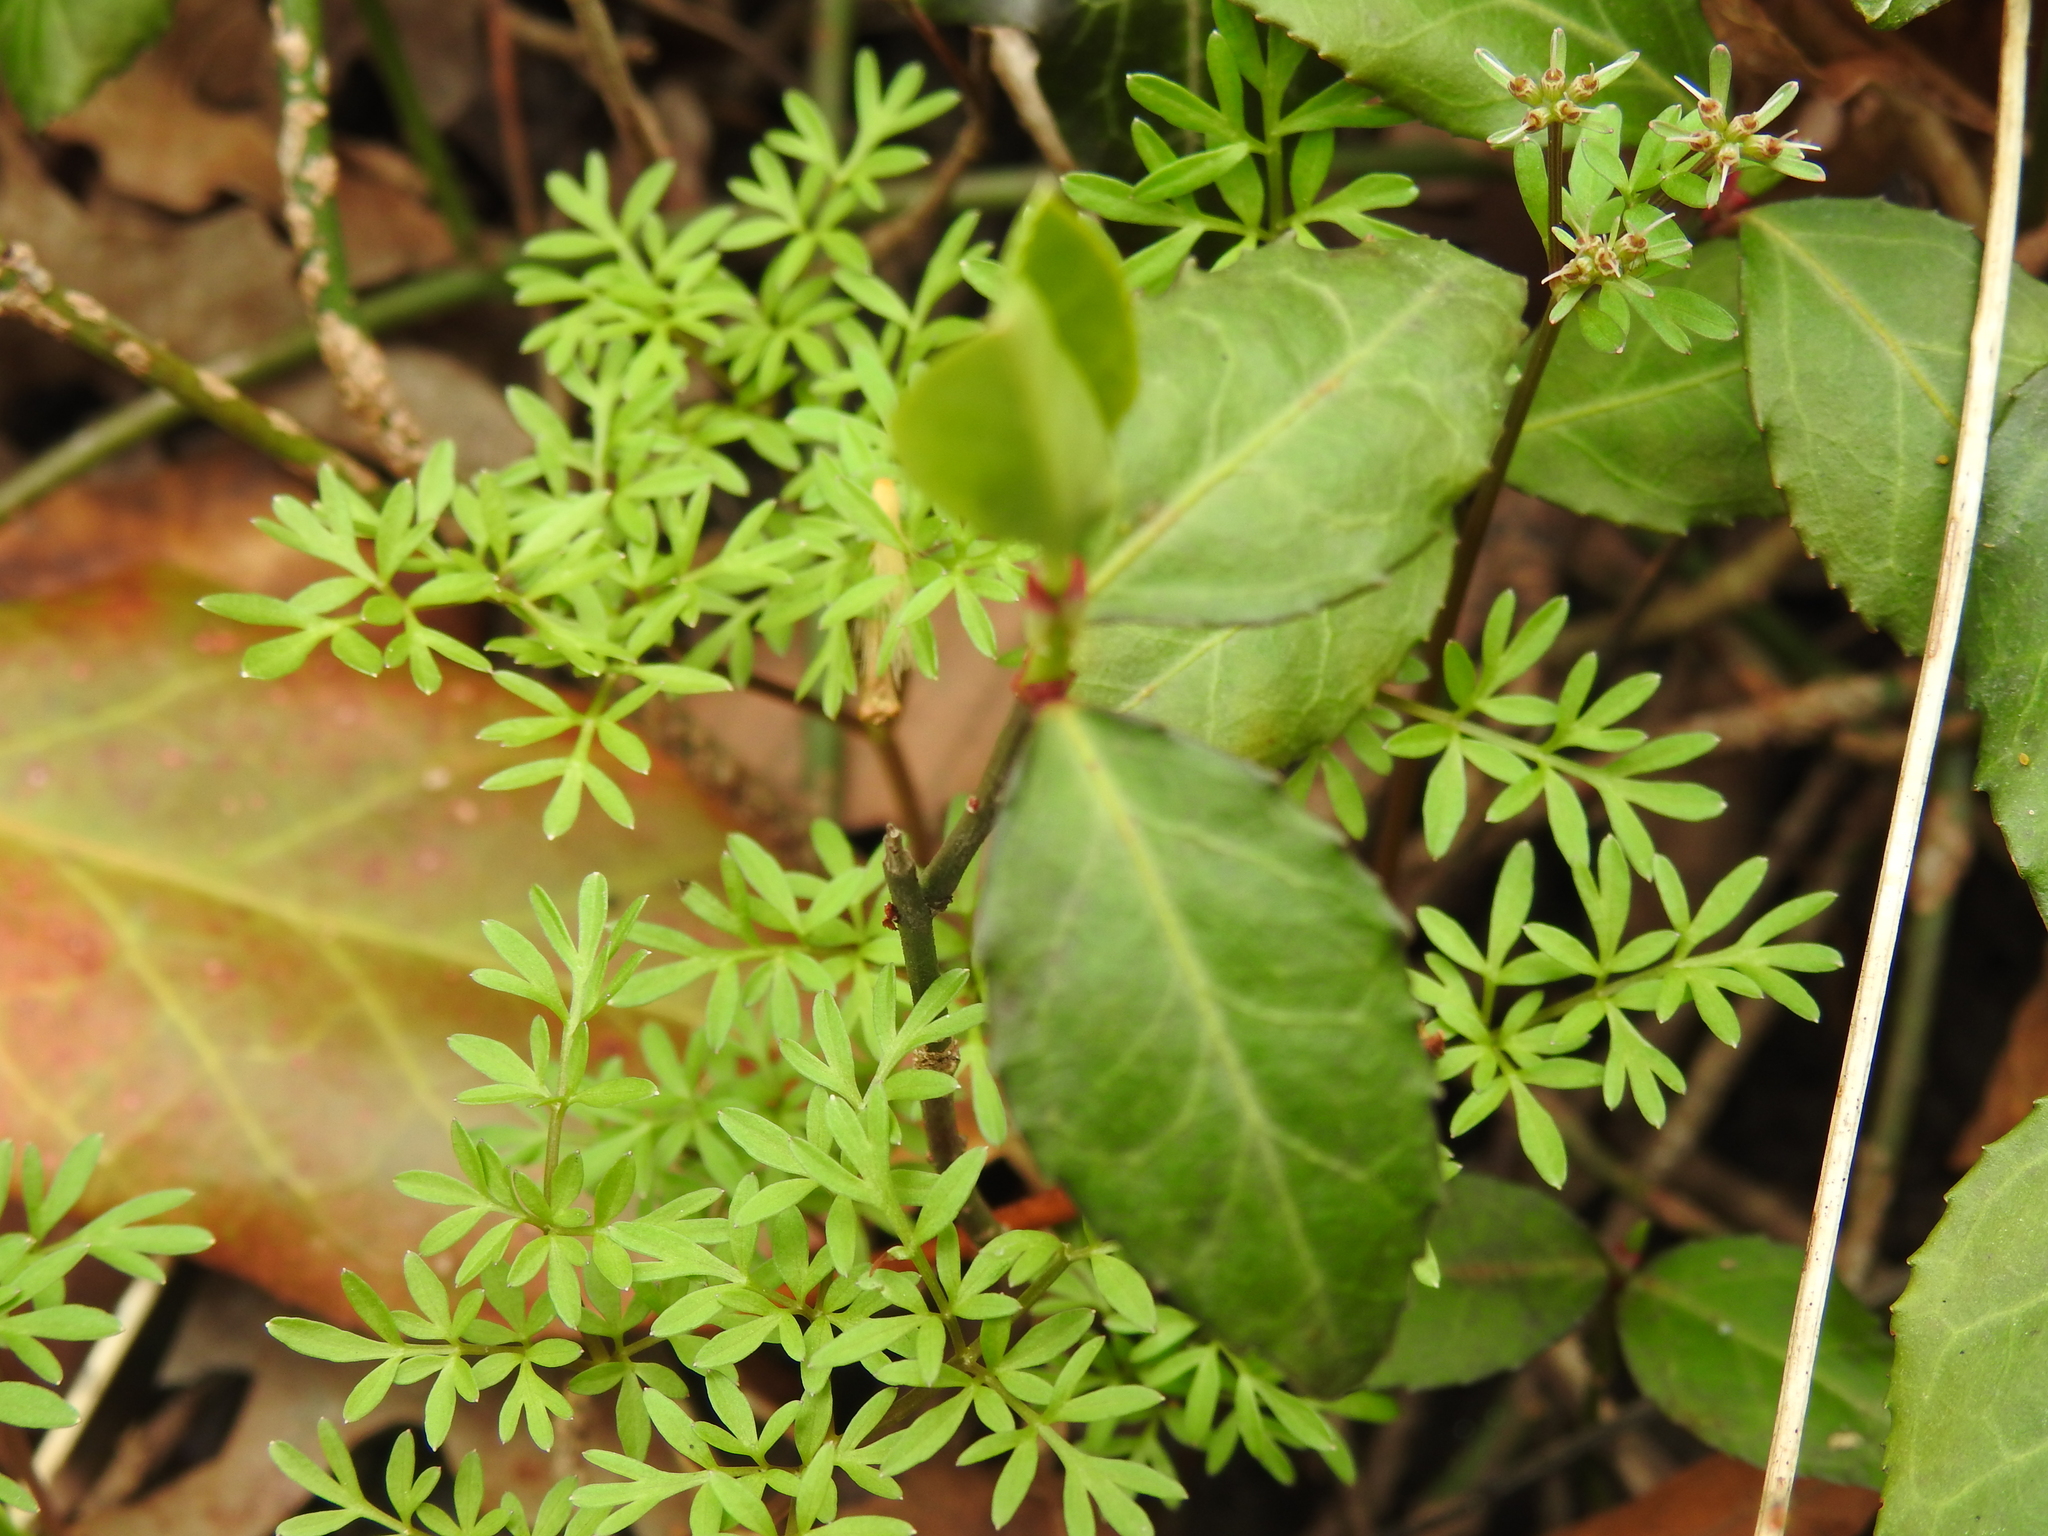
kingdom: Plantae
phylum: Tracheophyta
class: Magnoliopsida
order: Apiales
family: Apiaceae
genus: Erigenia
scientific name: Erigenia bulbosa
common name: Pepper-and-salt
